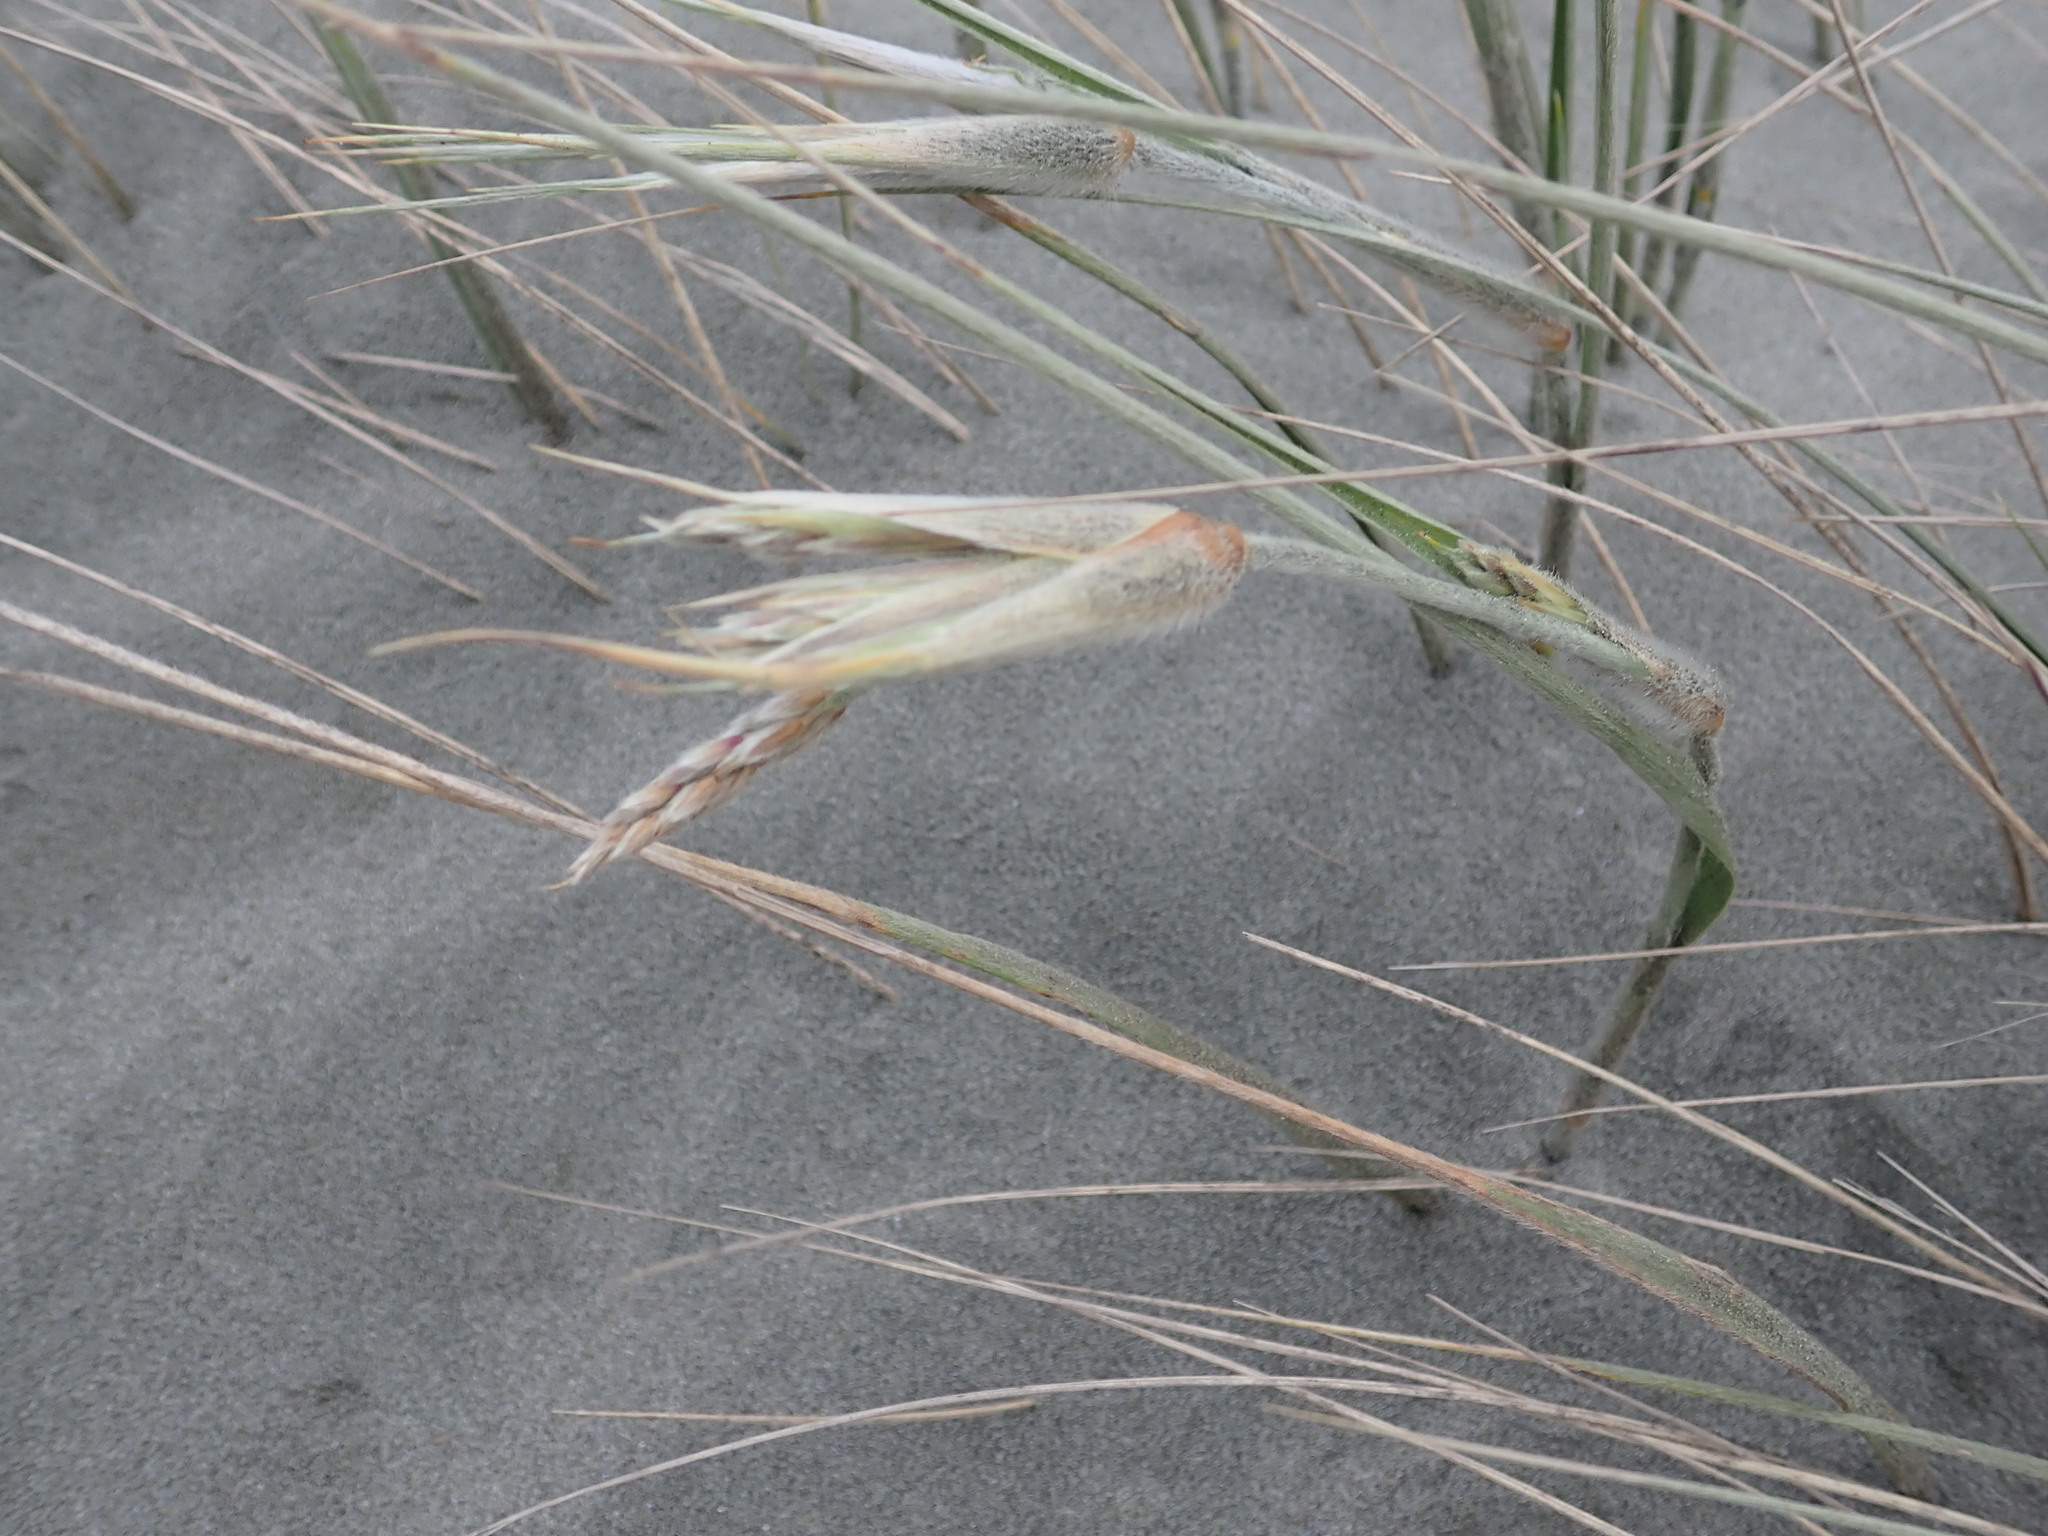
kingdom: Plantae
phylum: Tracheophyta
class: Liliopsida
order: Poales
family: Poaceae
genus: Spinifex
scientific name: Spinifex sericeus
